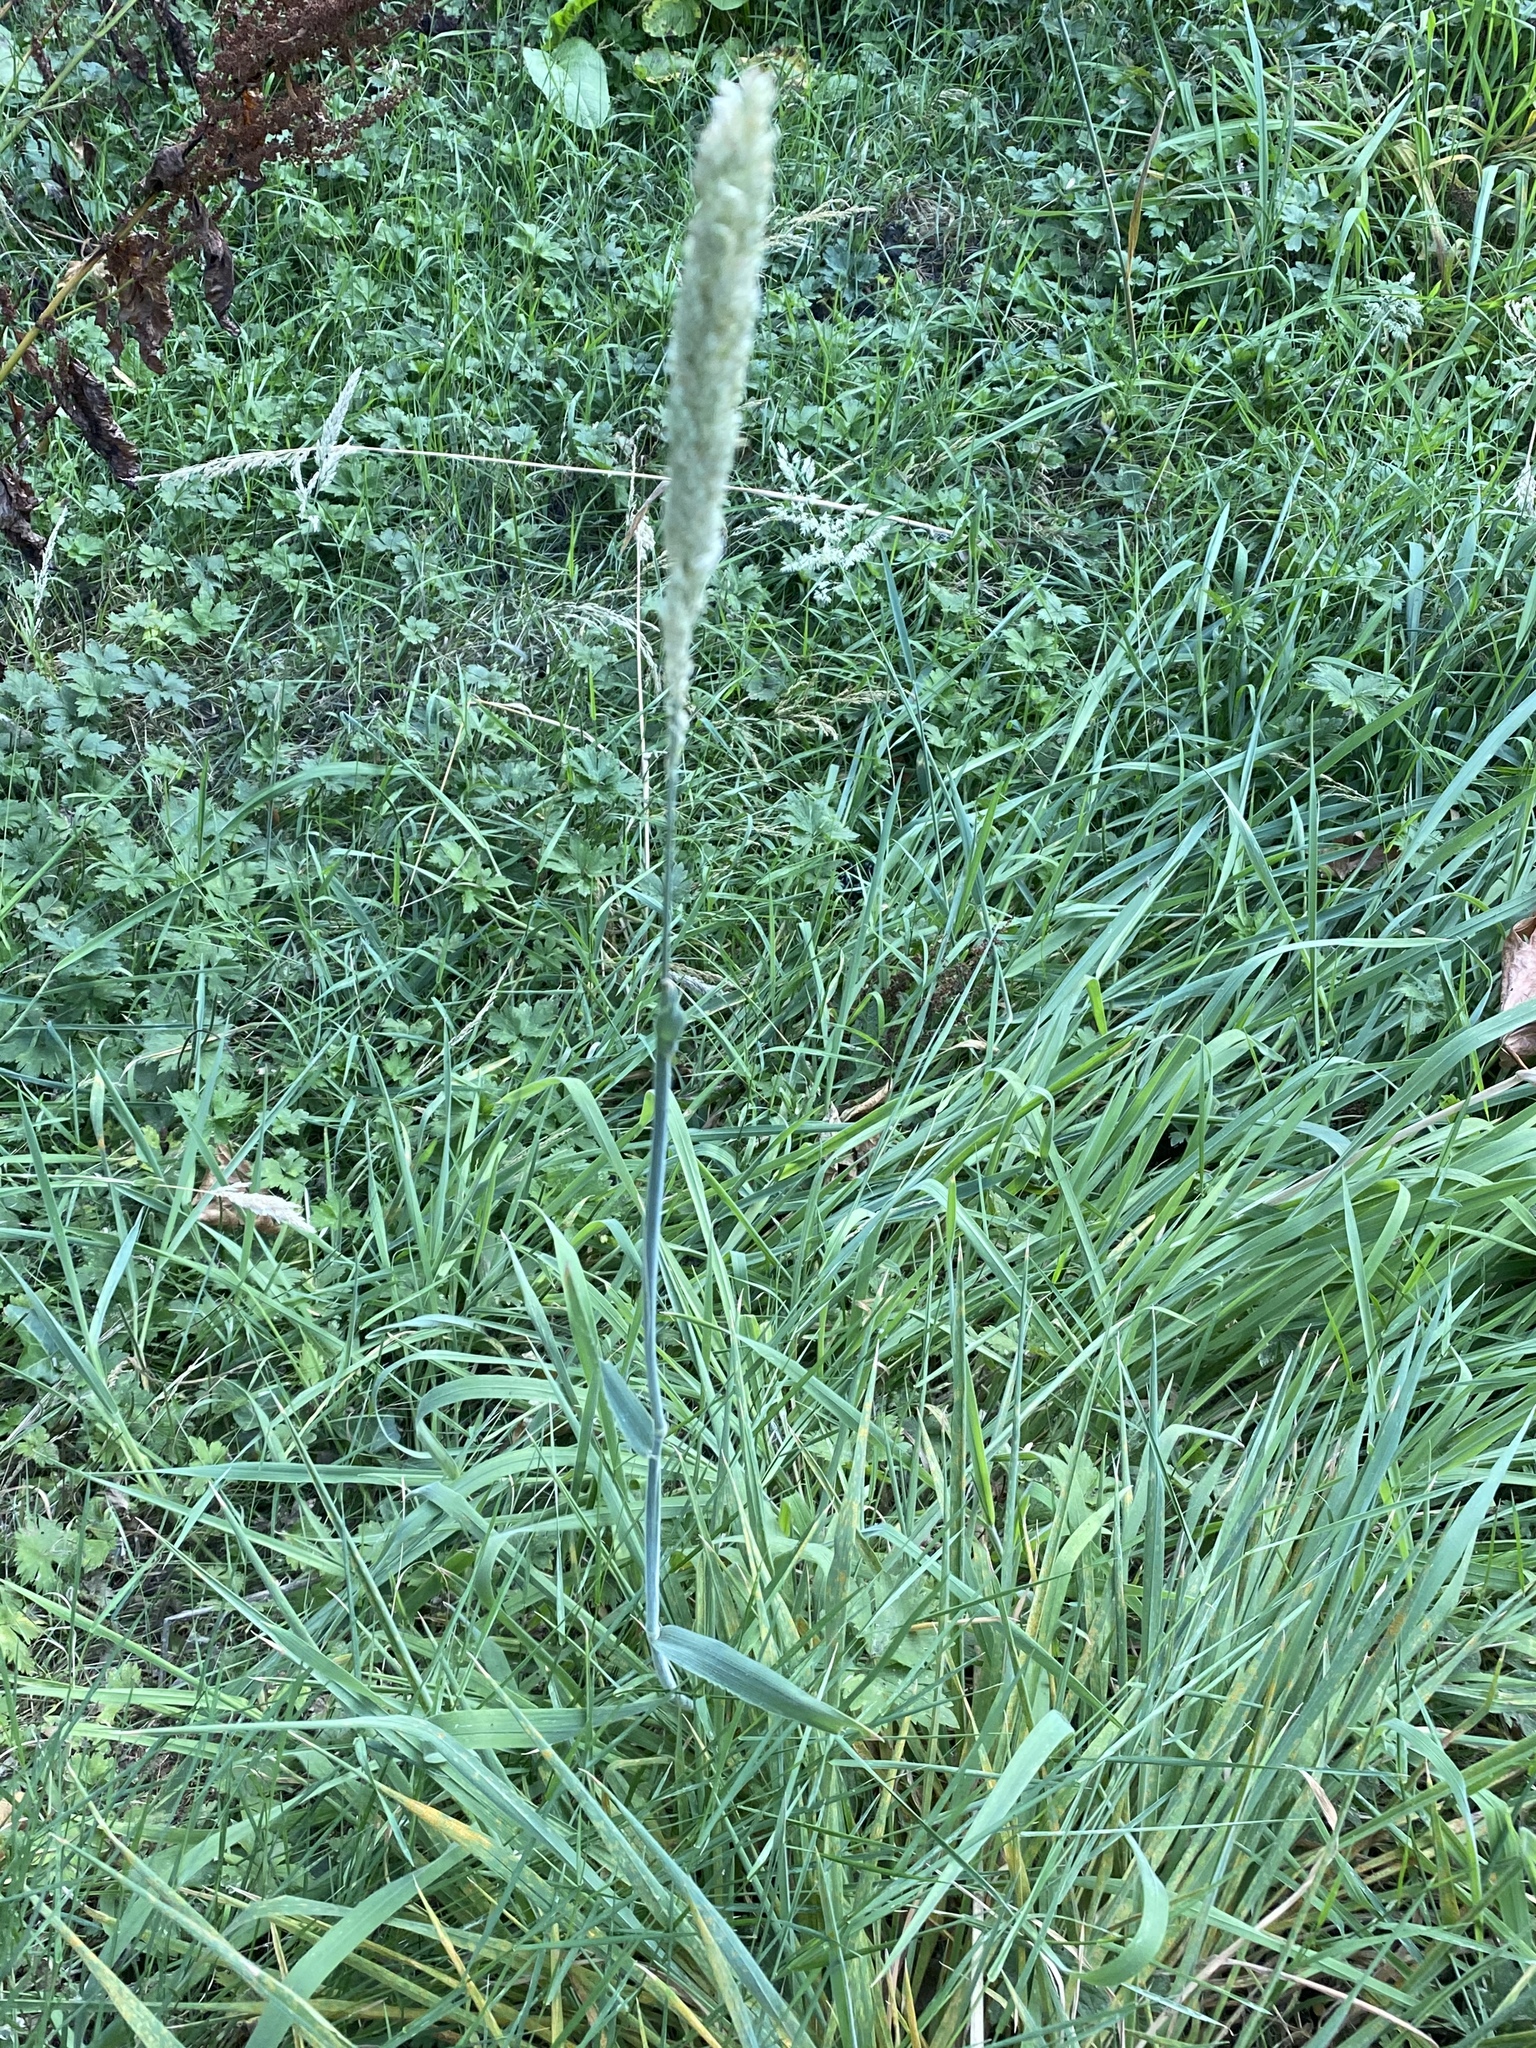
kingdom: Plantae
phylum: Tracheophyta
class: Liliopsida
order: Poales
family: Poaceae
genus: Holcus
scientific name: Holcus lanatus
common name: Yorkshire-fog
